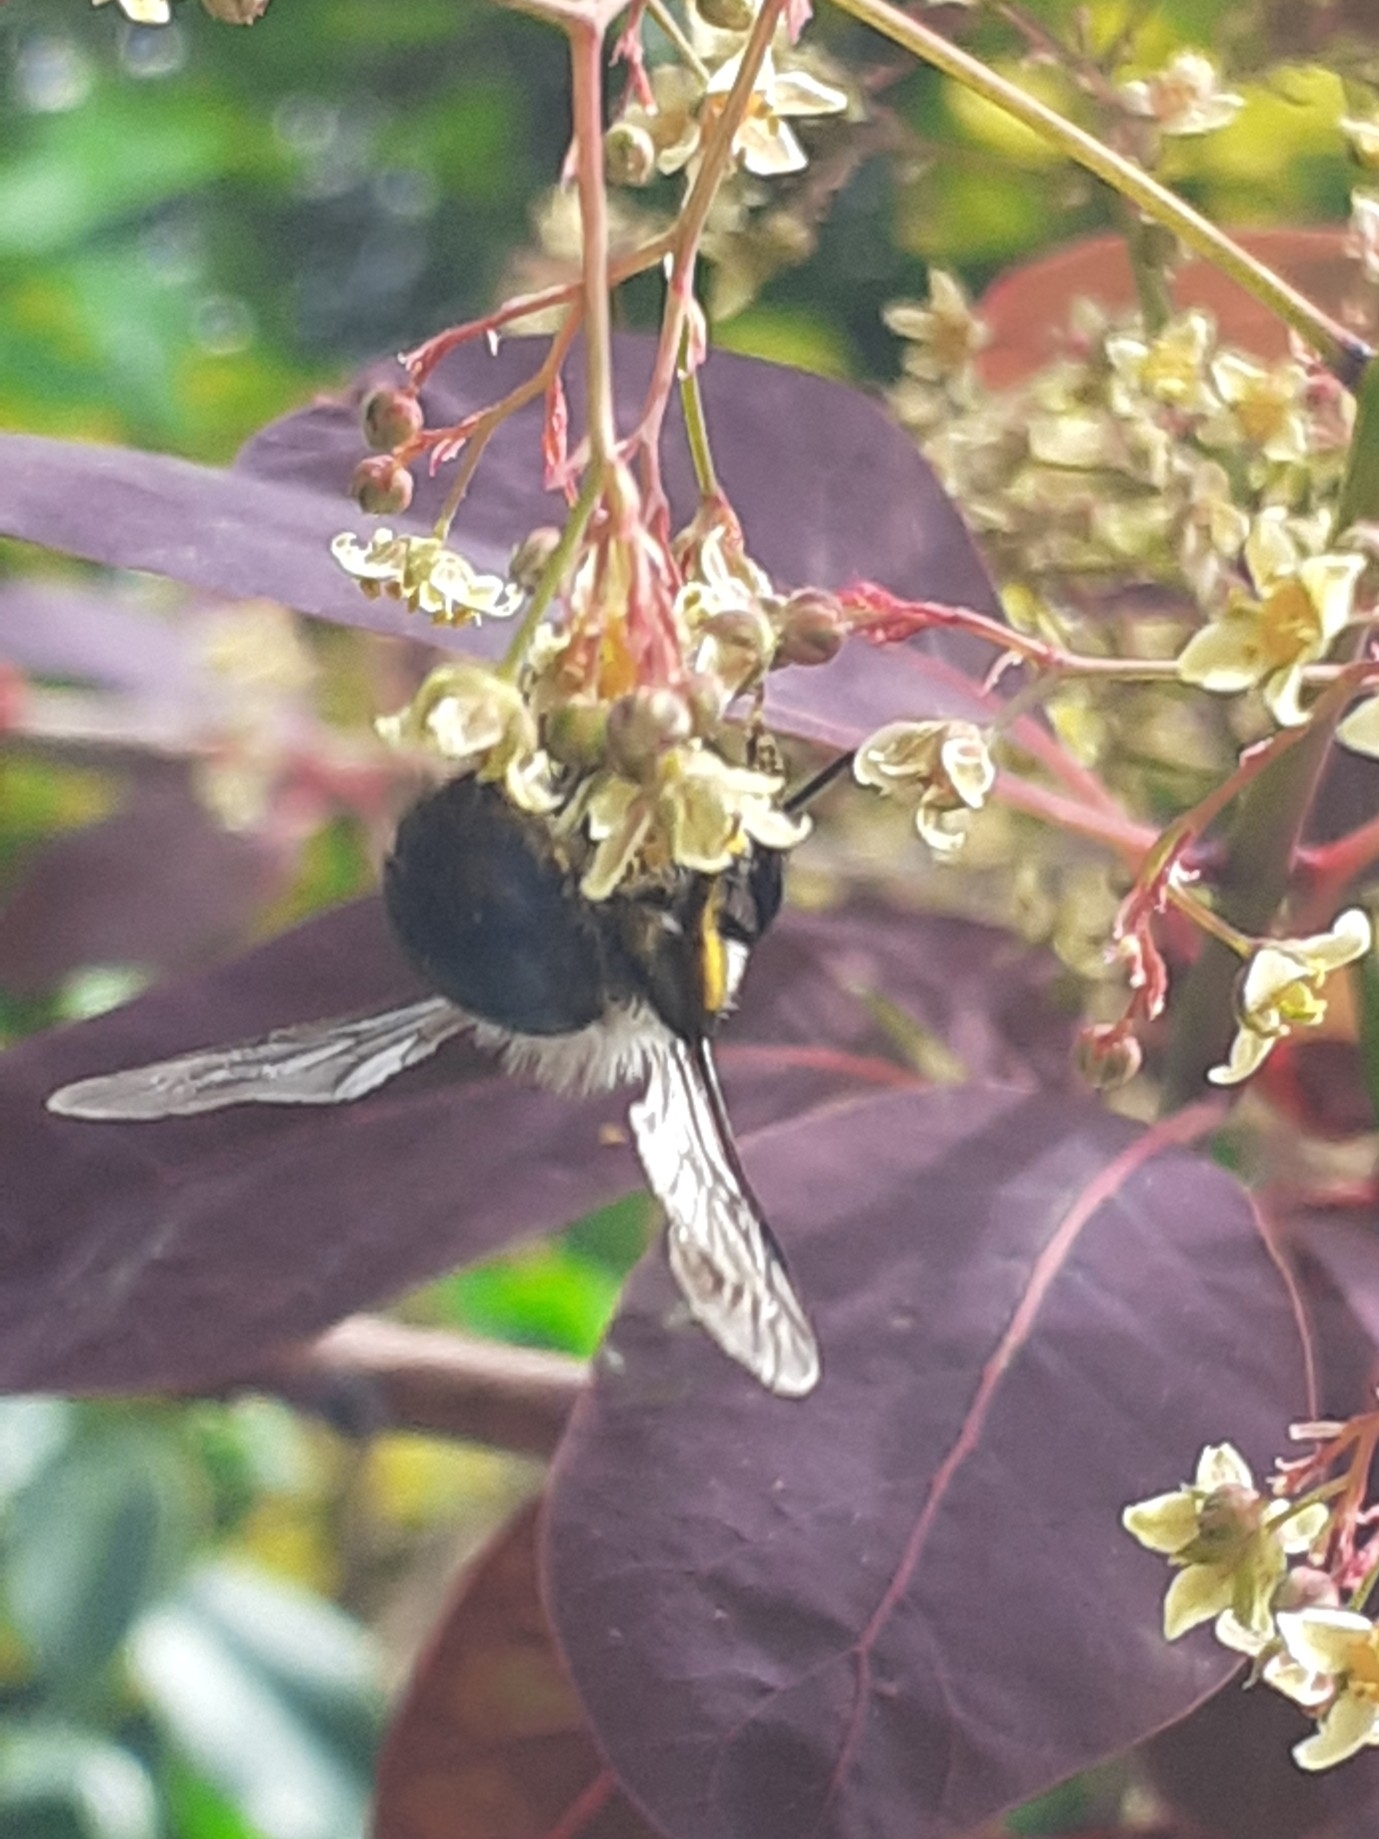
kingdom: Animalia
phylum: Arthropoda
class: Insecta
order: Hymenoptera
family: Andrenidae
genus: Andrena
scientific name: Andrena cineraria
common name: Ashy mining bee
